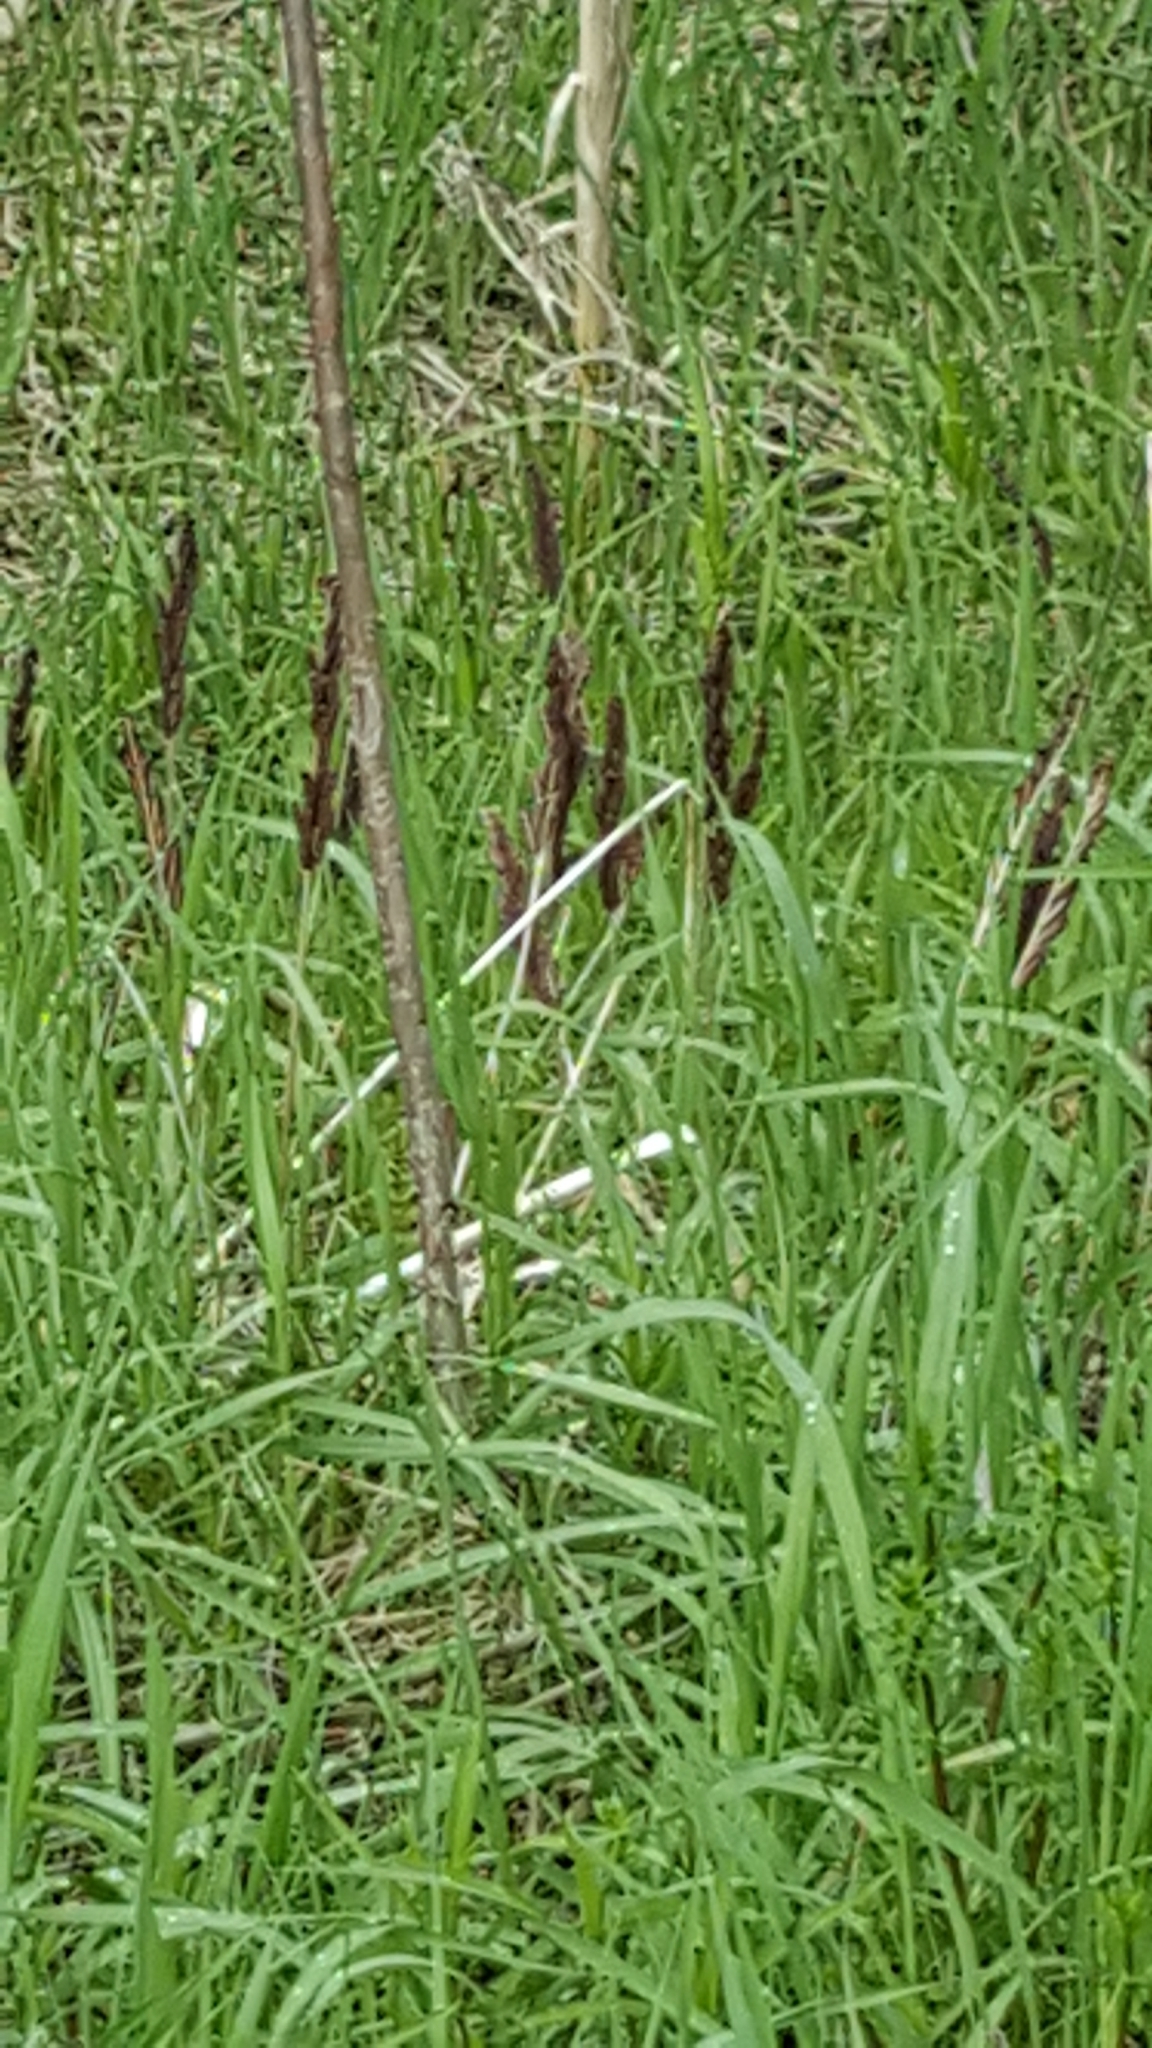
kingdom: Plantae
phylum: Tracheophyta
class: Polypodiopsida
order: Polypodiales
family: Onocleaceae
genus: Onoclea
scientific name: Onoclea sensibilis
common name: Sensitive fern
